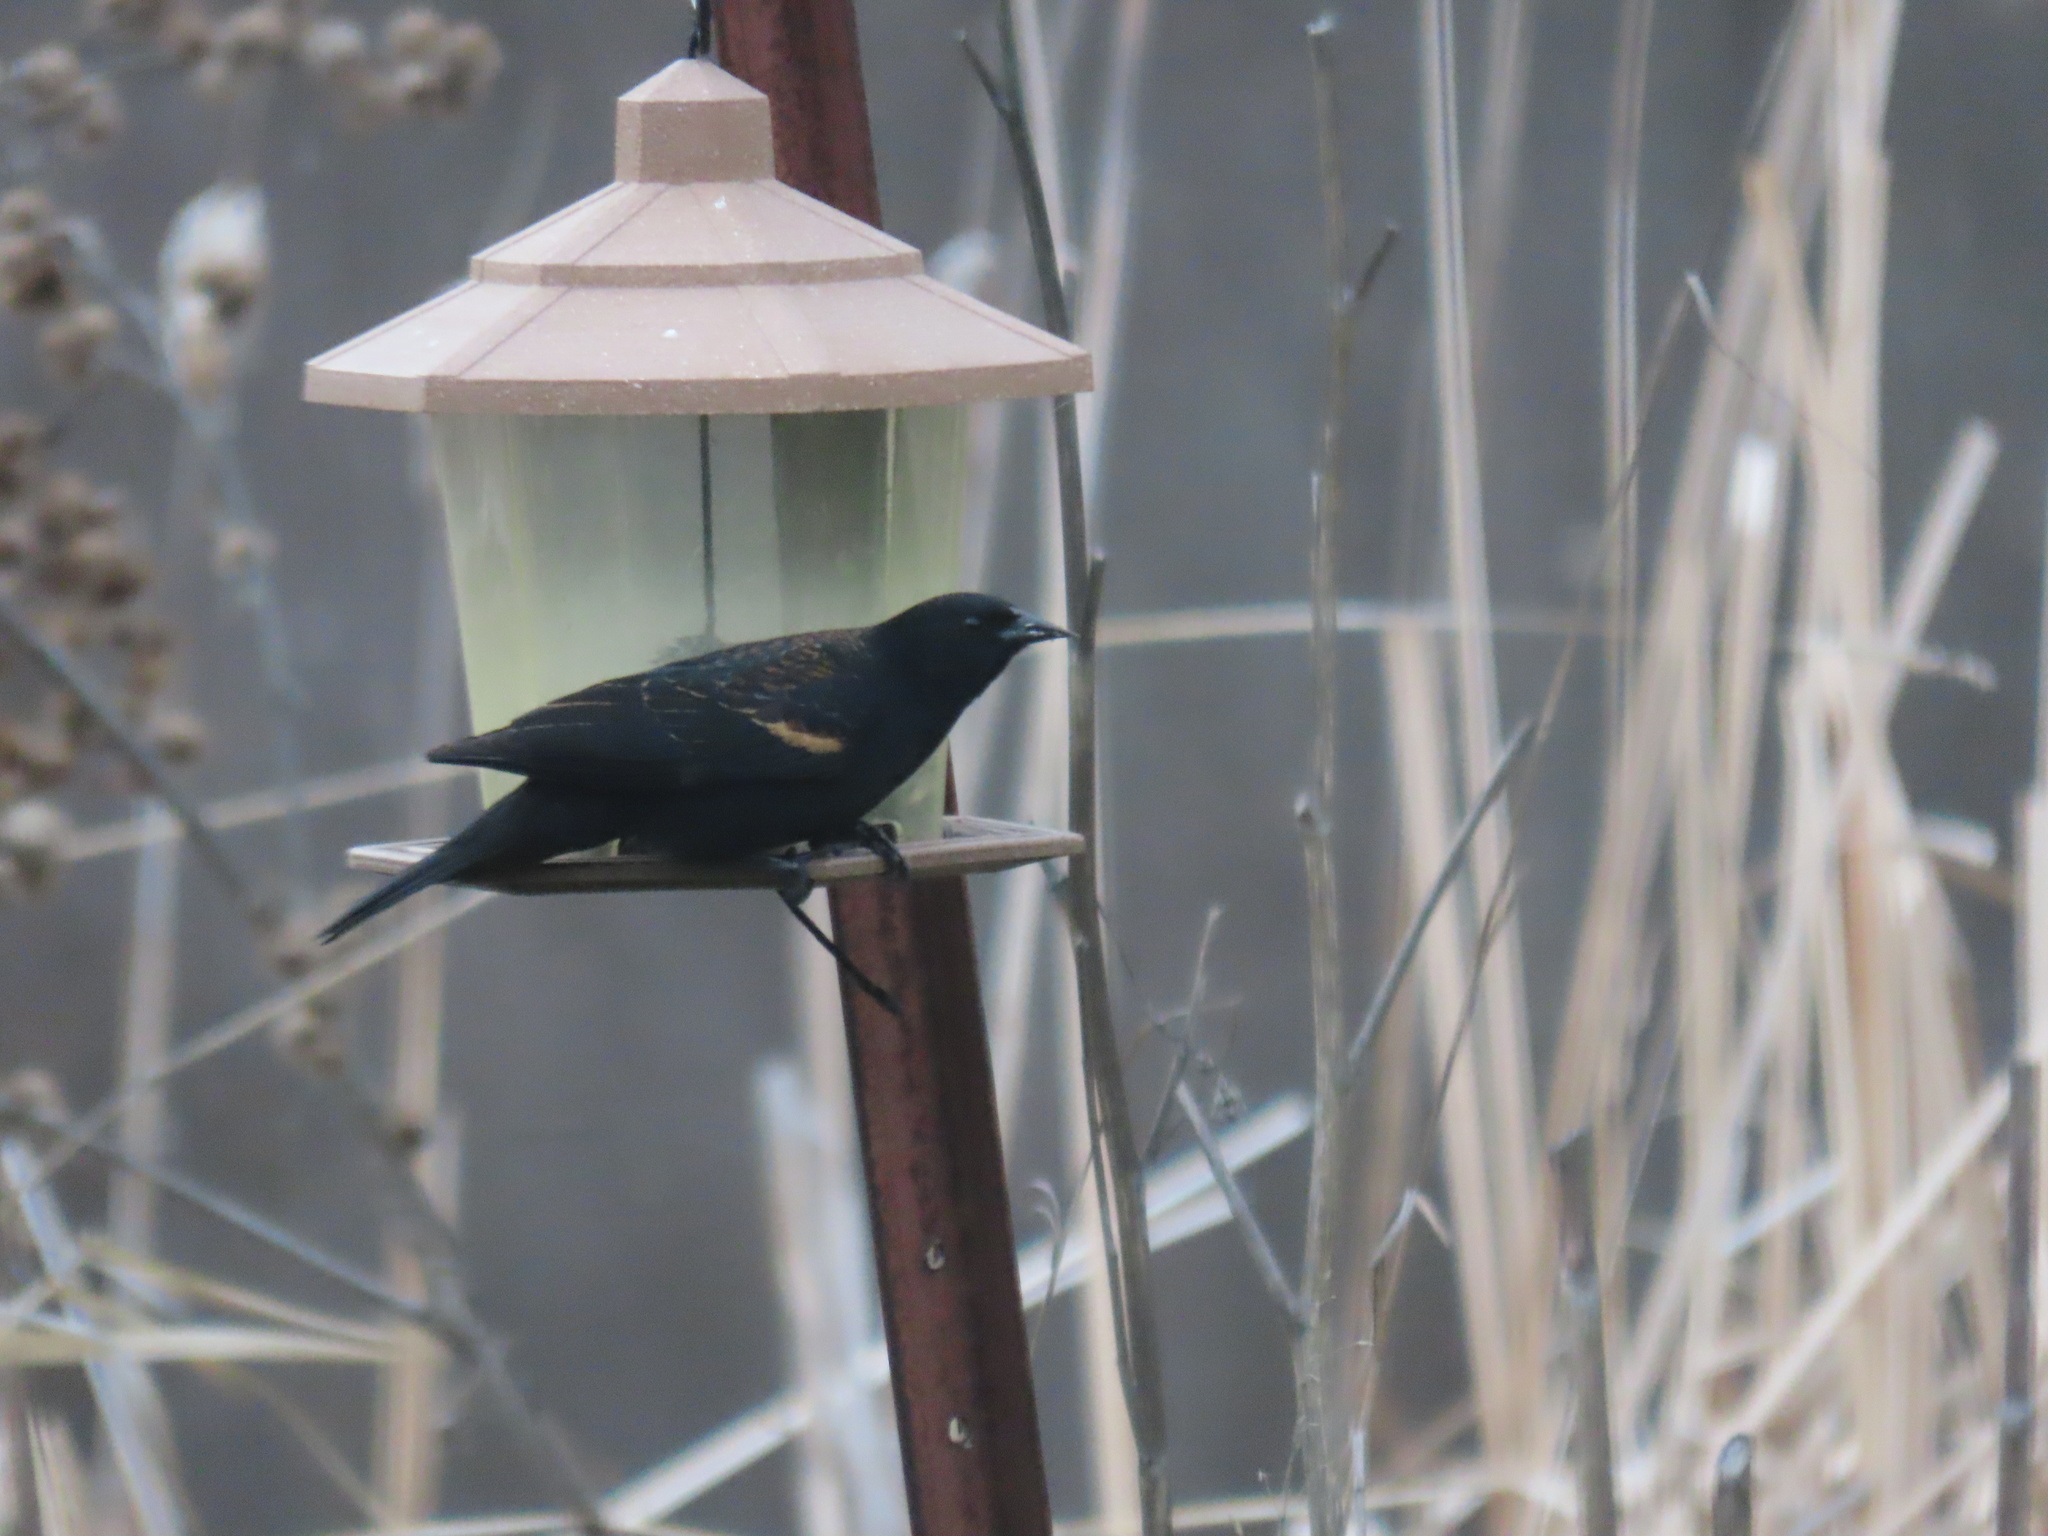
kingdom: Animalia
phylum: Chordata
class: Aves
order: Passeriformes
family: Icteridae
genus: Agelaius
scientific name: Agelaius phoeniceus
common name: Red-winged blackbird
